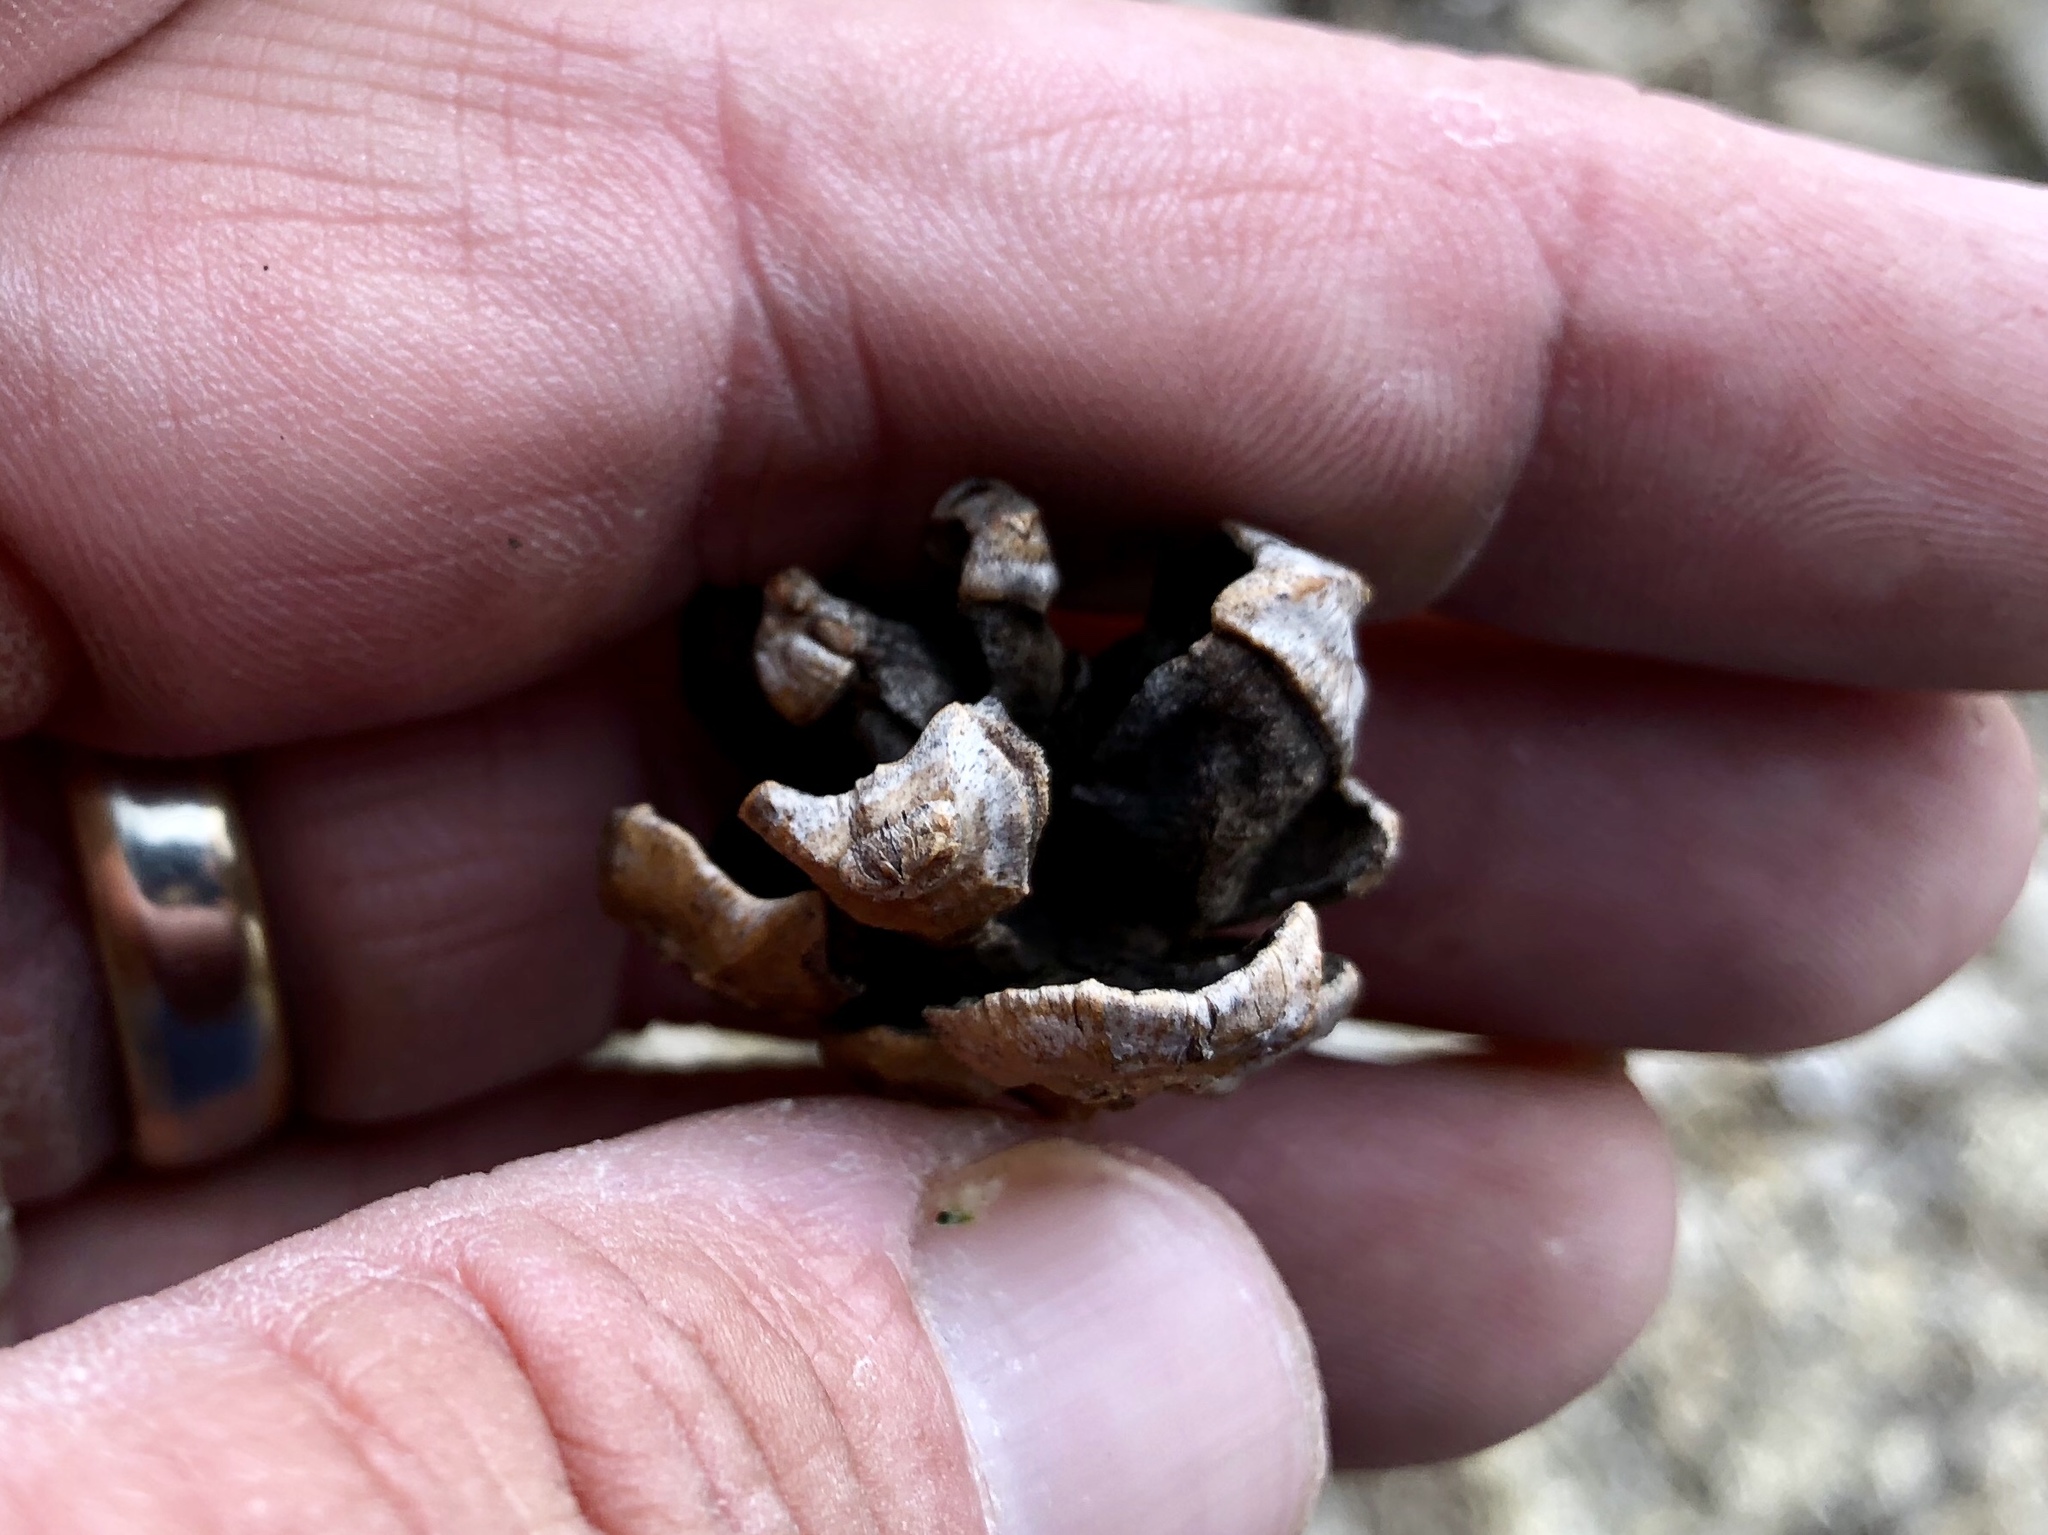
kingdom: Plantae
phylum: Tracheophyta
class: Pinopsida
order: Pinales
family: Pinaceae
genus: Pinus
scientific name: Pinus edulis
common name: Colorado pinyon
